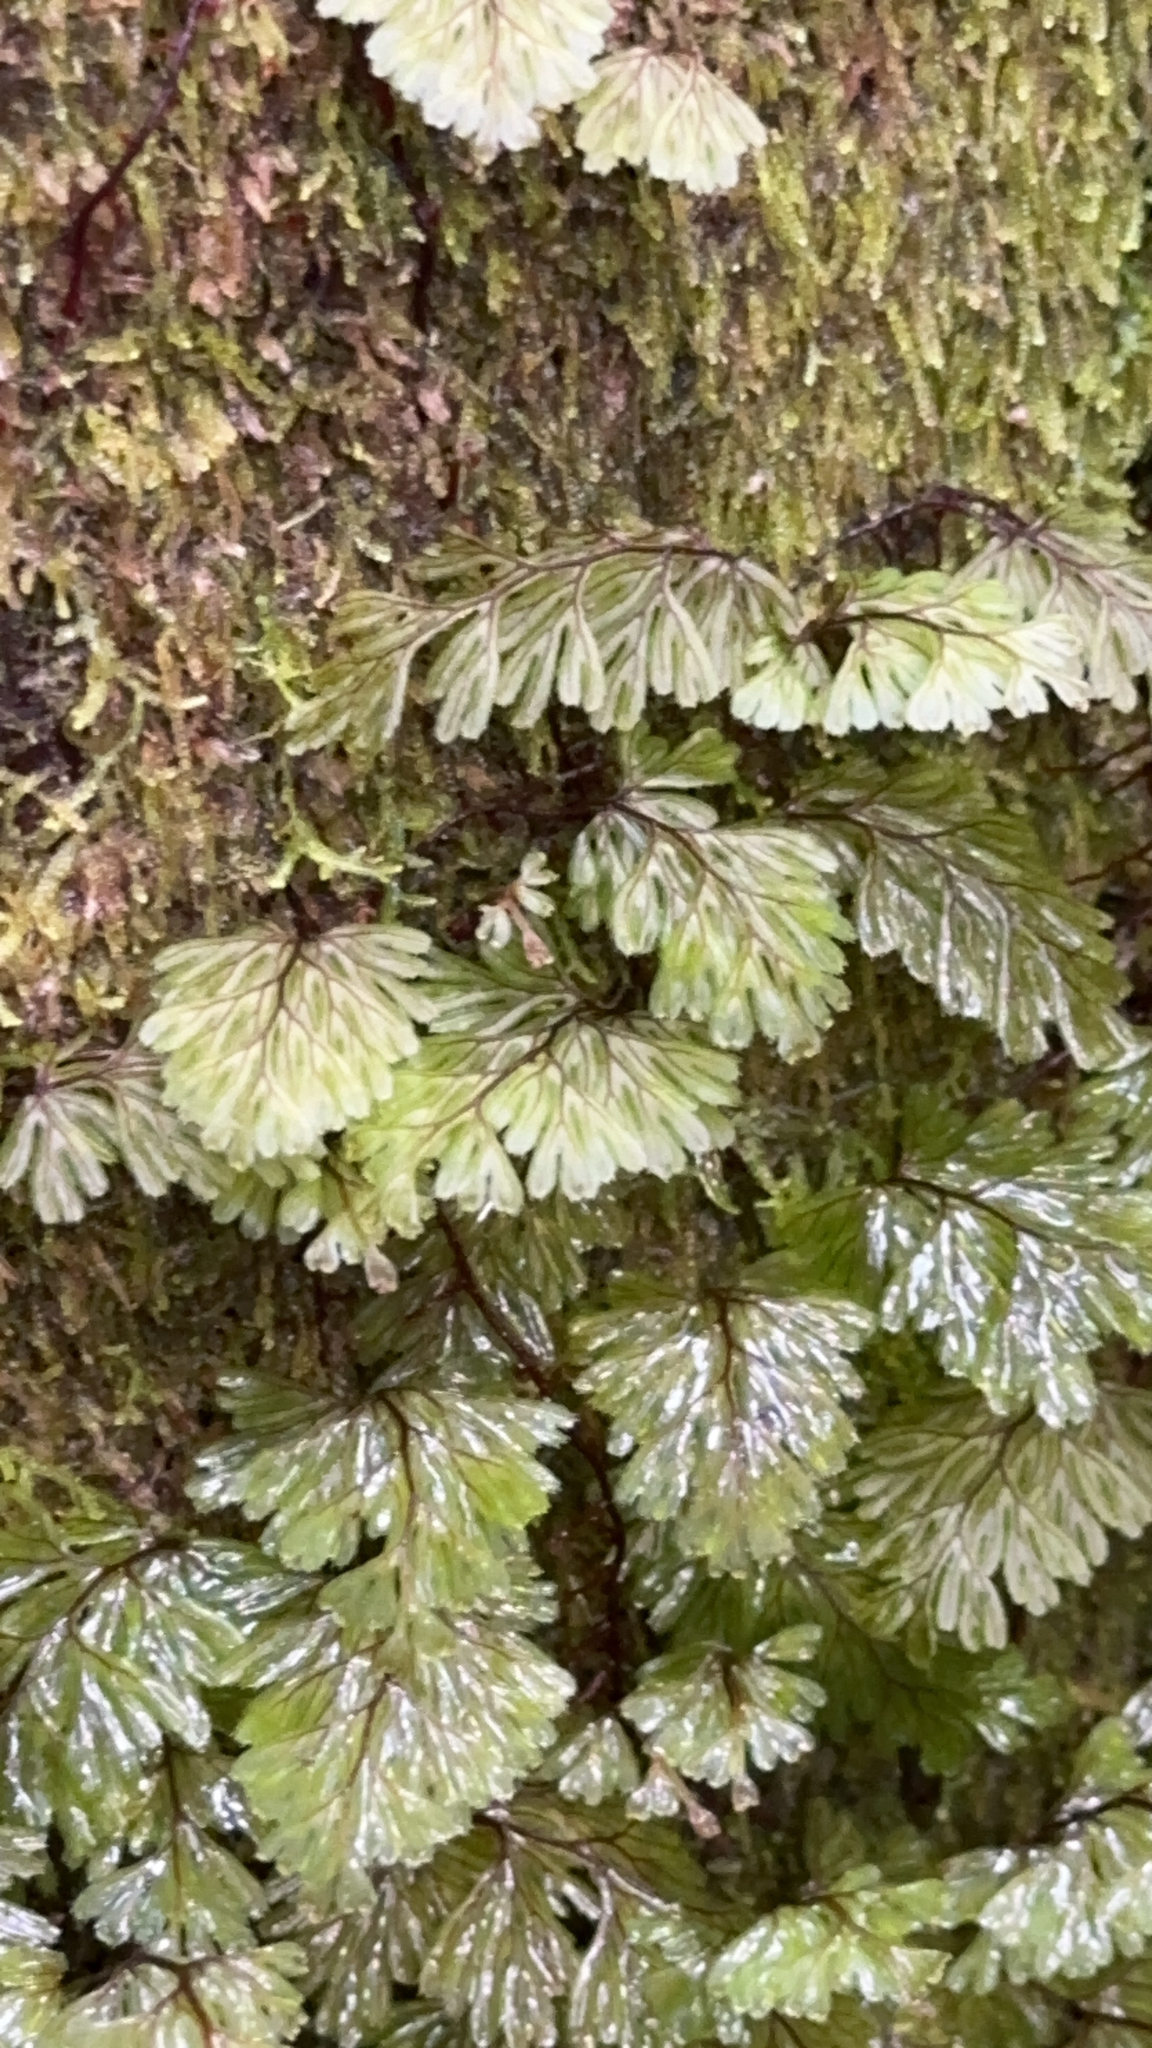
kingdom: Plantae
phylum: Tracheophyta
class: Polypodiopsida
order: Hymenophyllales
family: Hymenophyllaceae
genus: Hymenophyllum
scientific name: Hymenophyllum tunbrigense
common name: Tunbridge filmy fern
